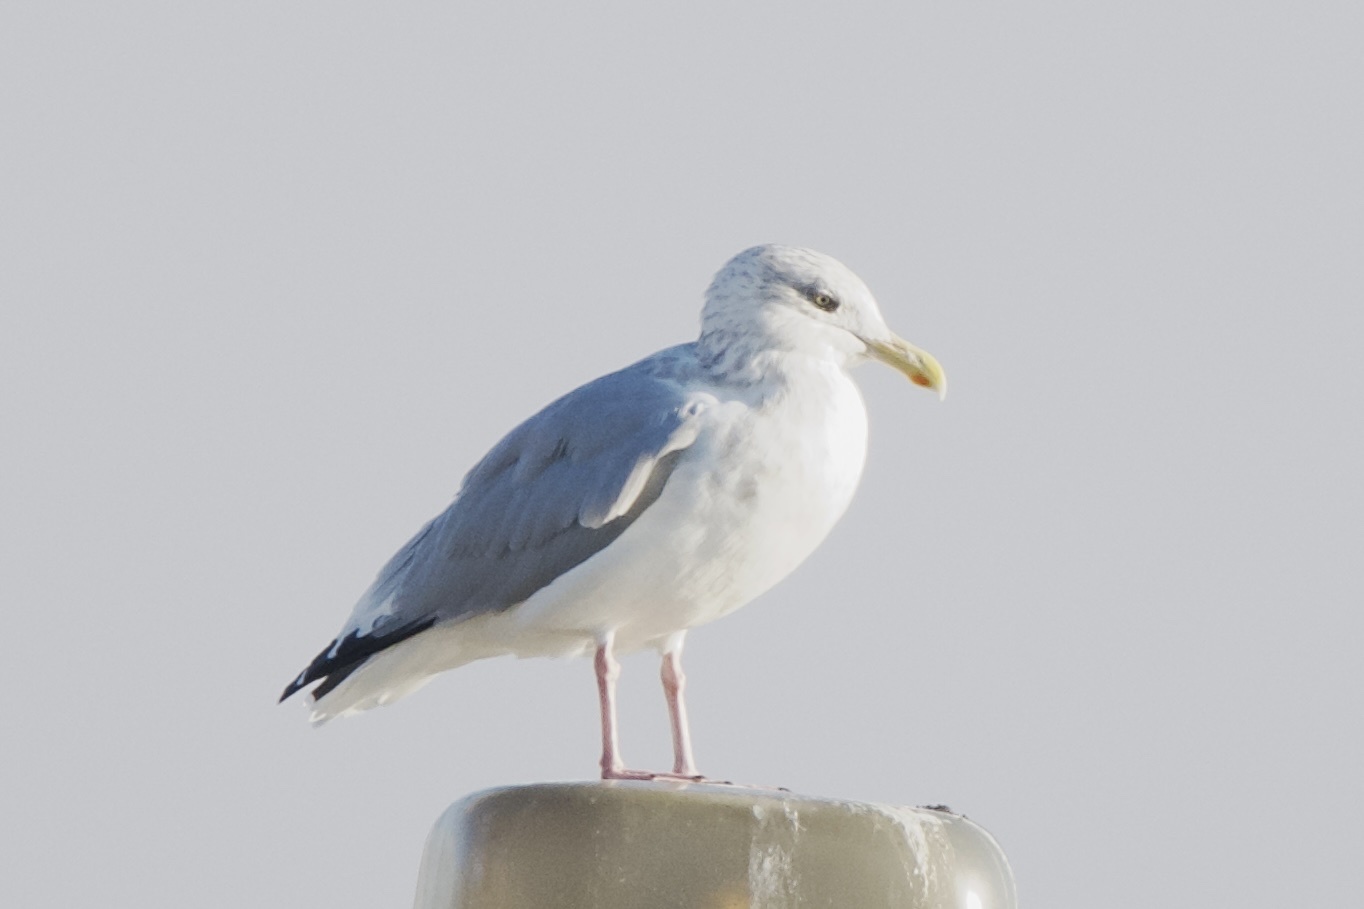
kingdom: Animalia
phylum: Chordata
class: Aves
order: Charadriiformes
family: Laridae
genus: Larus
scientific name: Larus argentatus
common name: Herring gull
